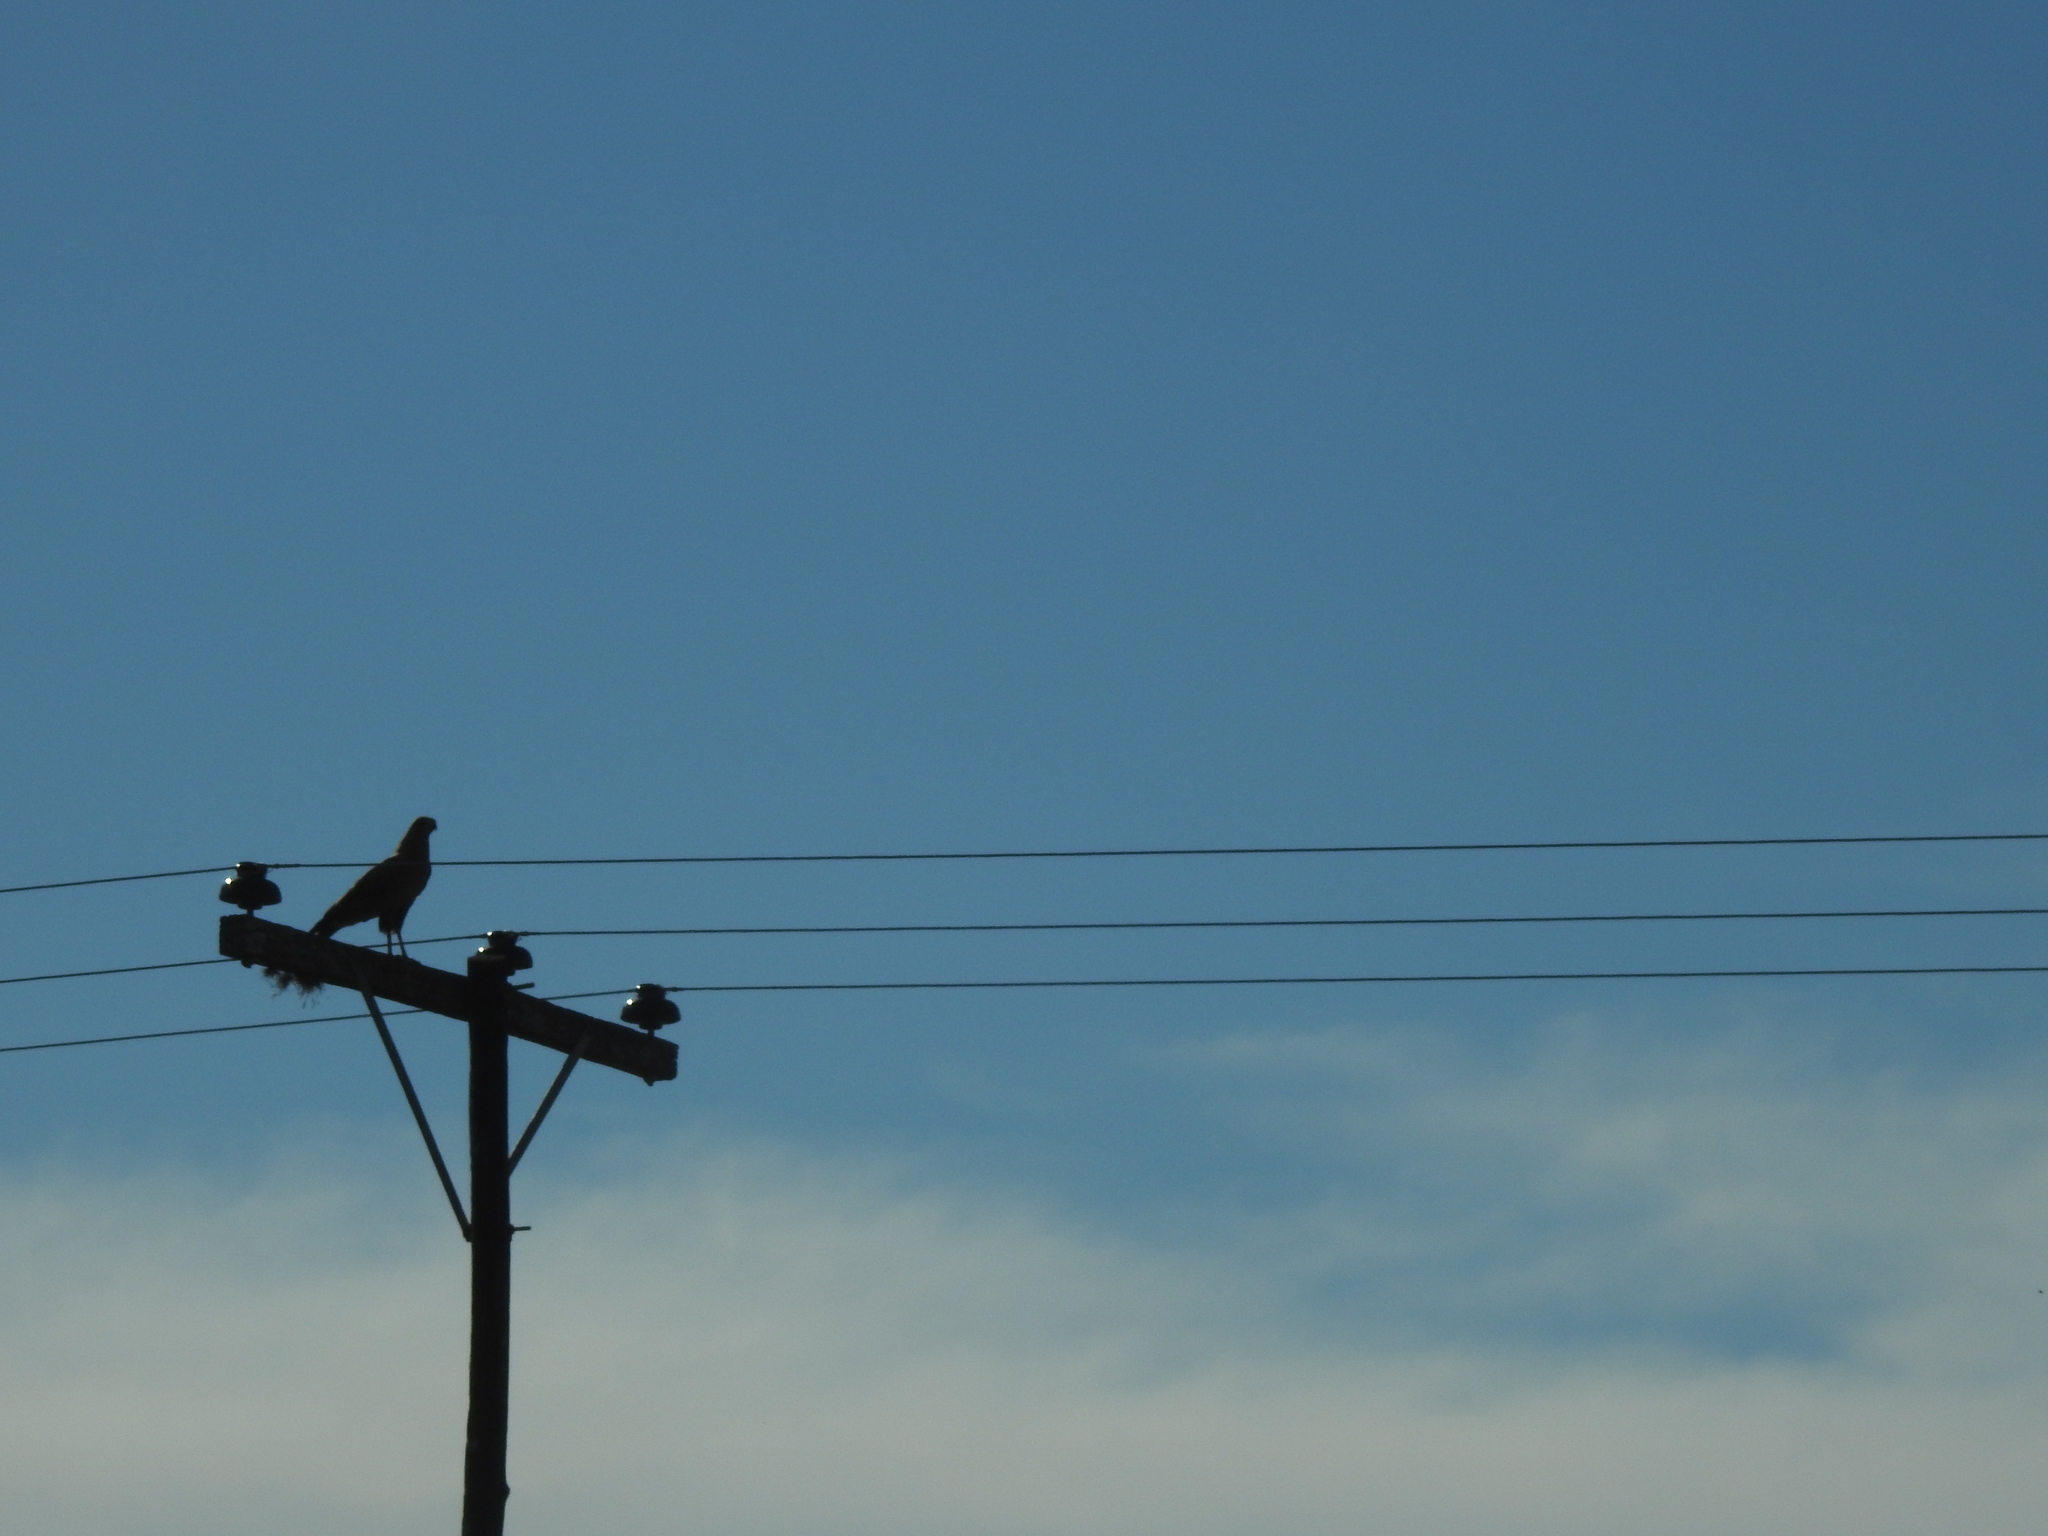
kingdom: Animalia
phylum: Chordata
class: Aves
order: Accipitriformes
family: Accipitridae
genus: Buteogallus
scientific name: Buteogallus meridionalis
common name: Savanna hawk
